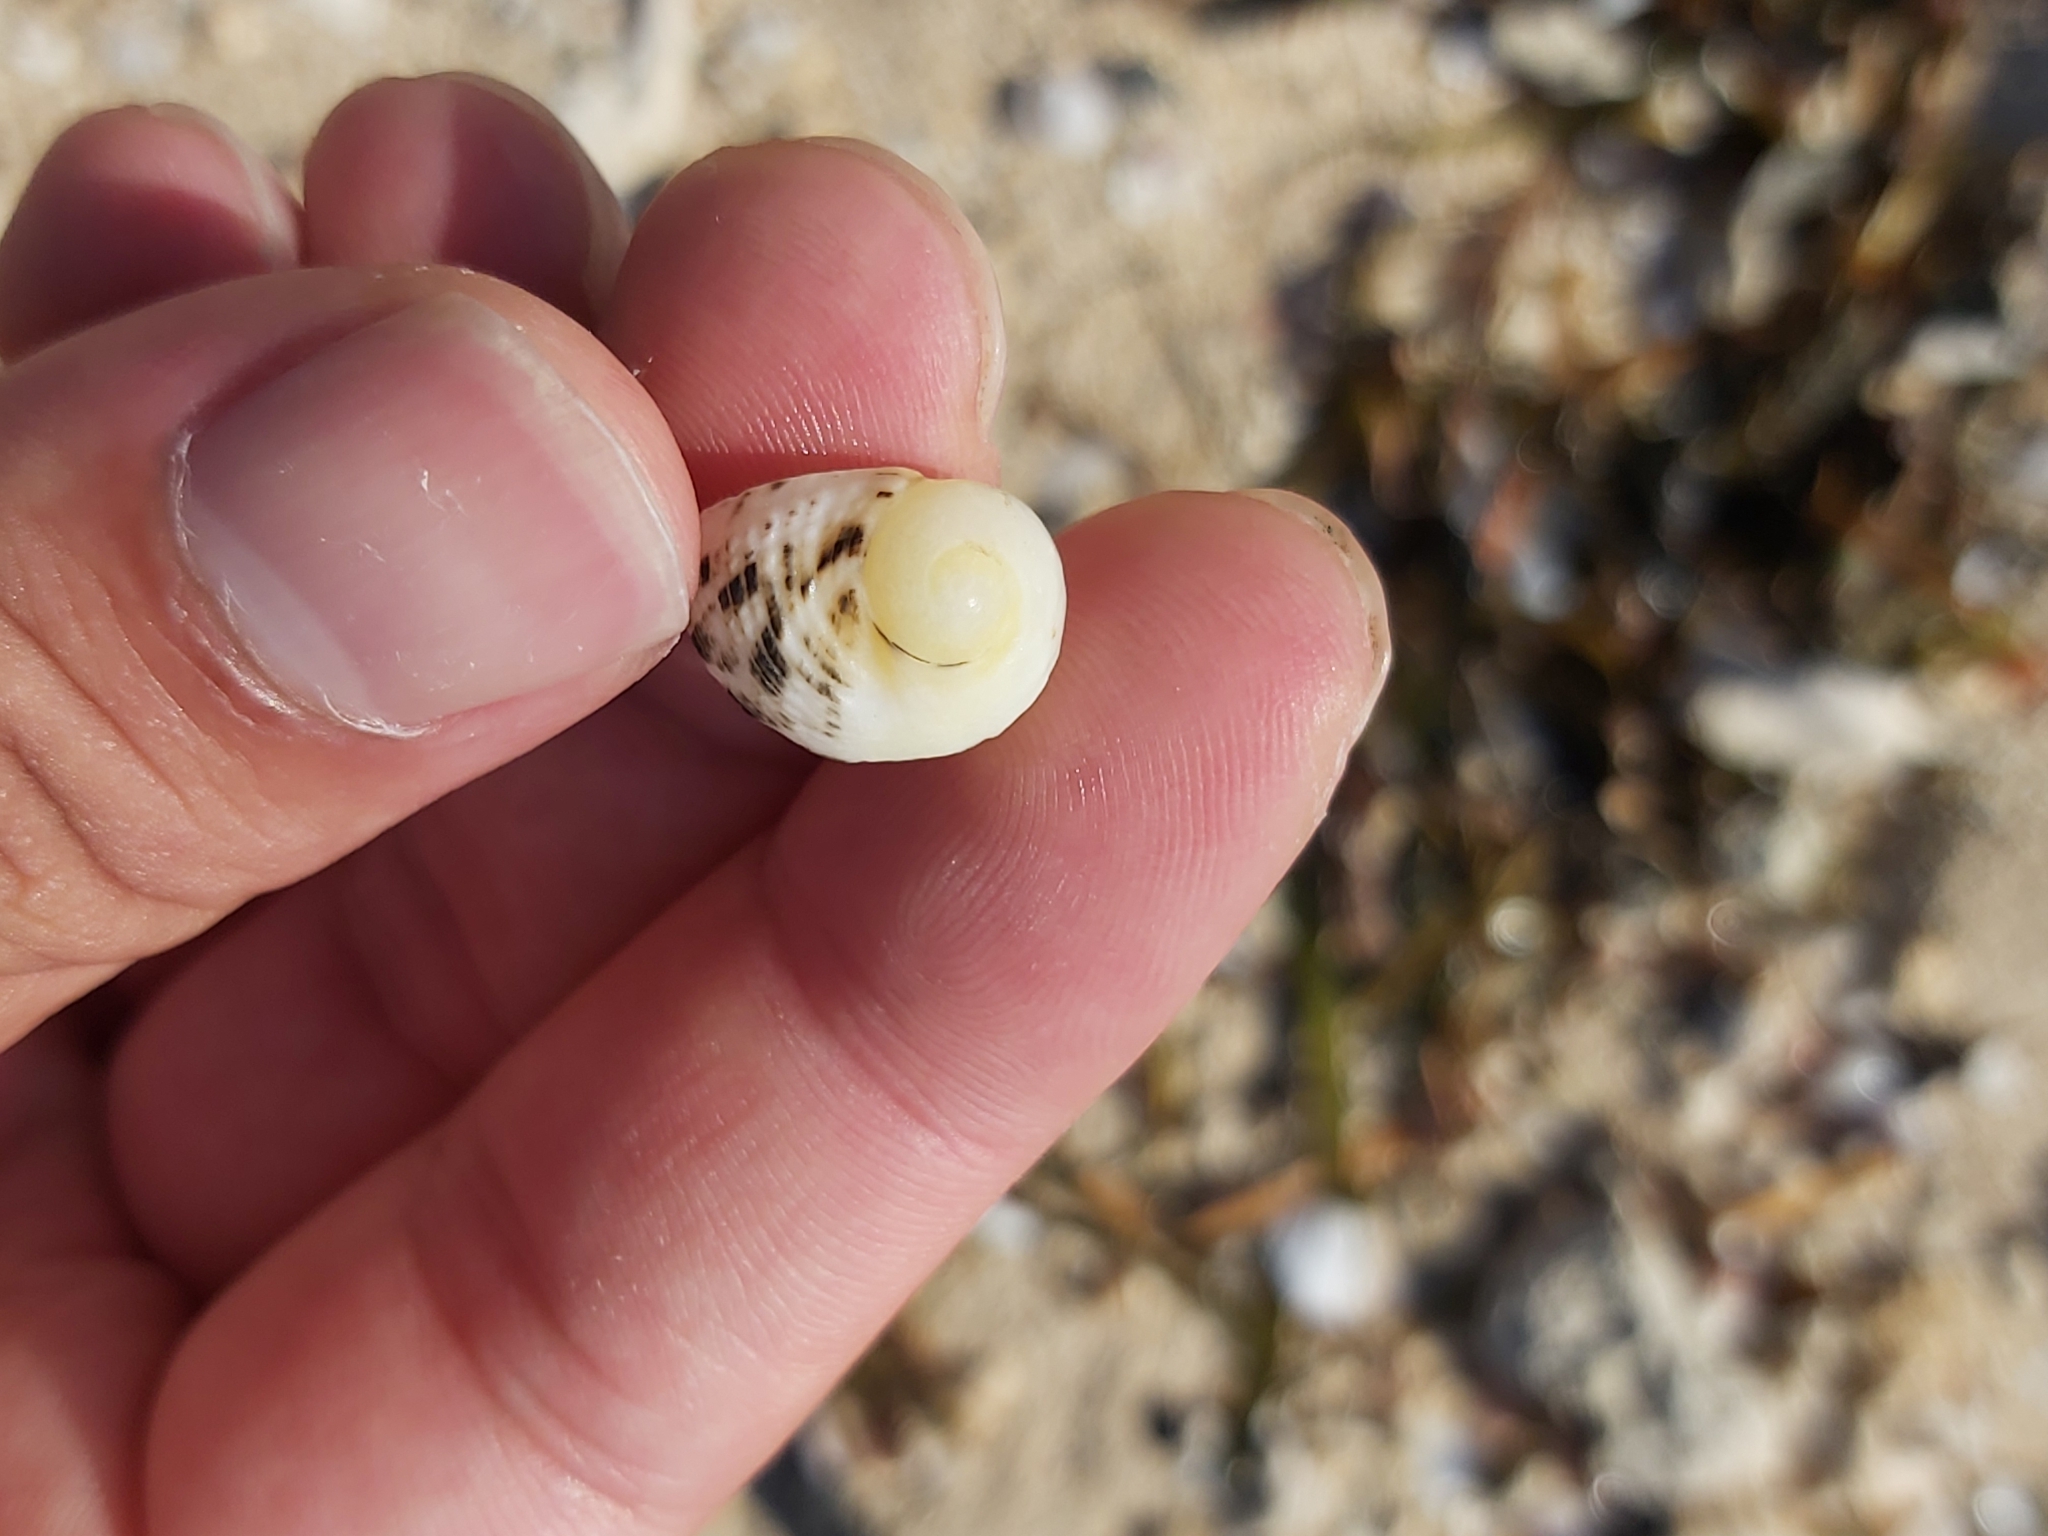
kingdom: Animalia
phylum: Mollusca
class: Gastropoda
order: Cycloneritida
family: Neritidae
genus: Nerita
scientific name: Nerita undata
